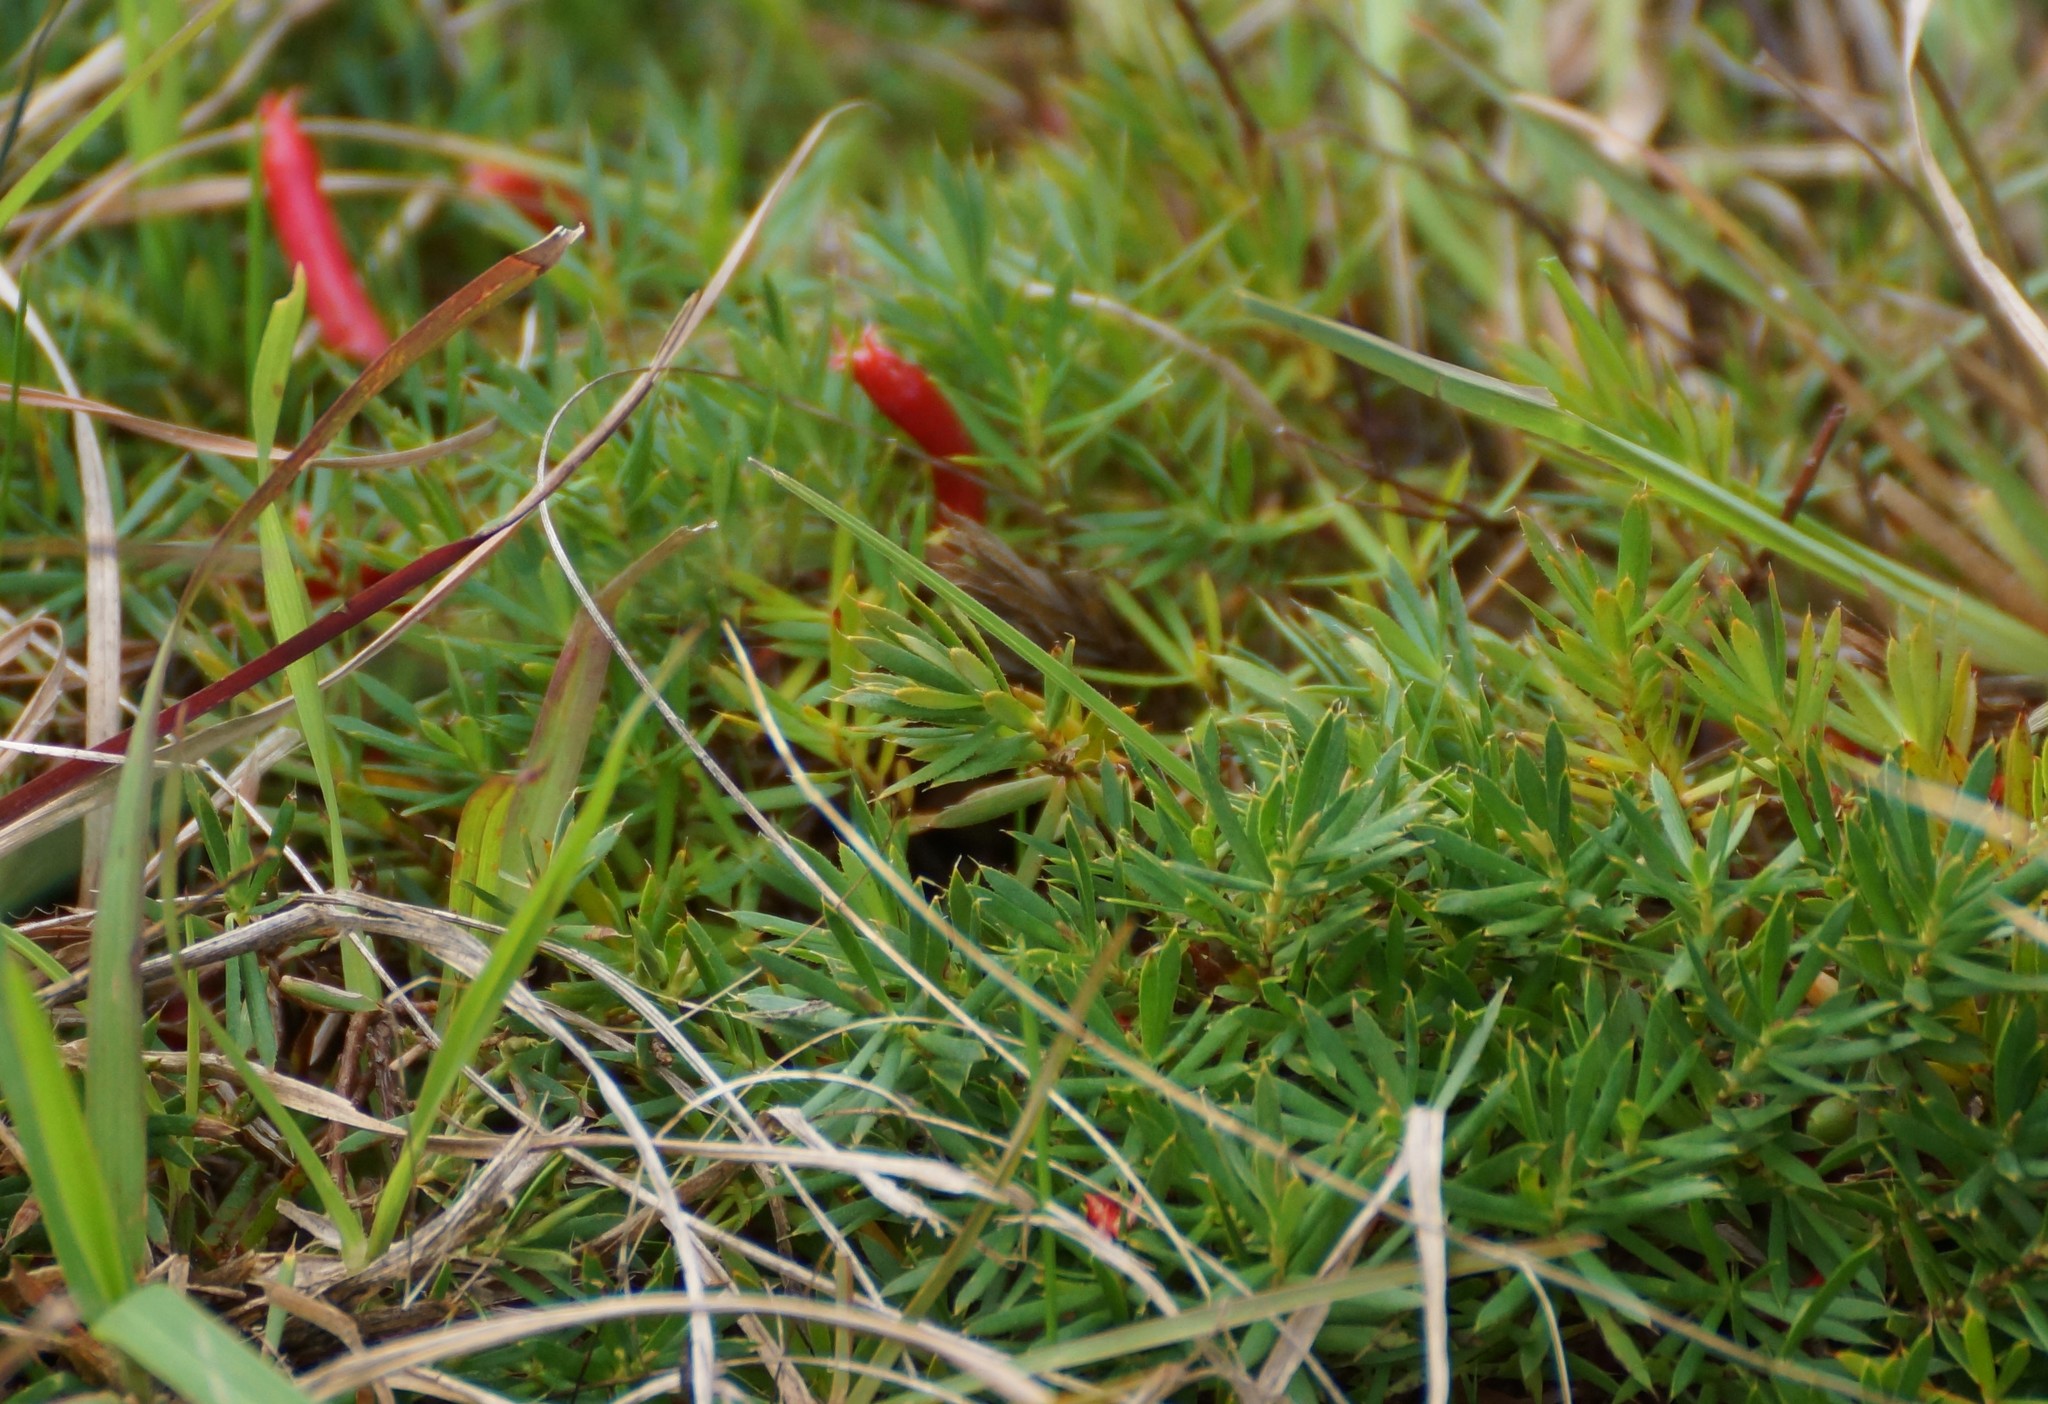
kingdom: Plantae
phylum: Tracheophyta
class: Magnoliopsida
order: Ericales
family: Ericaceae
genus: Styphelia
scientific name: Styphelia humifusa
